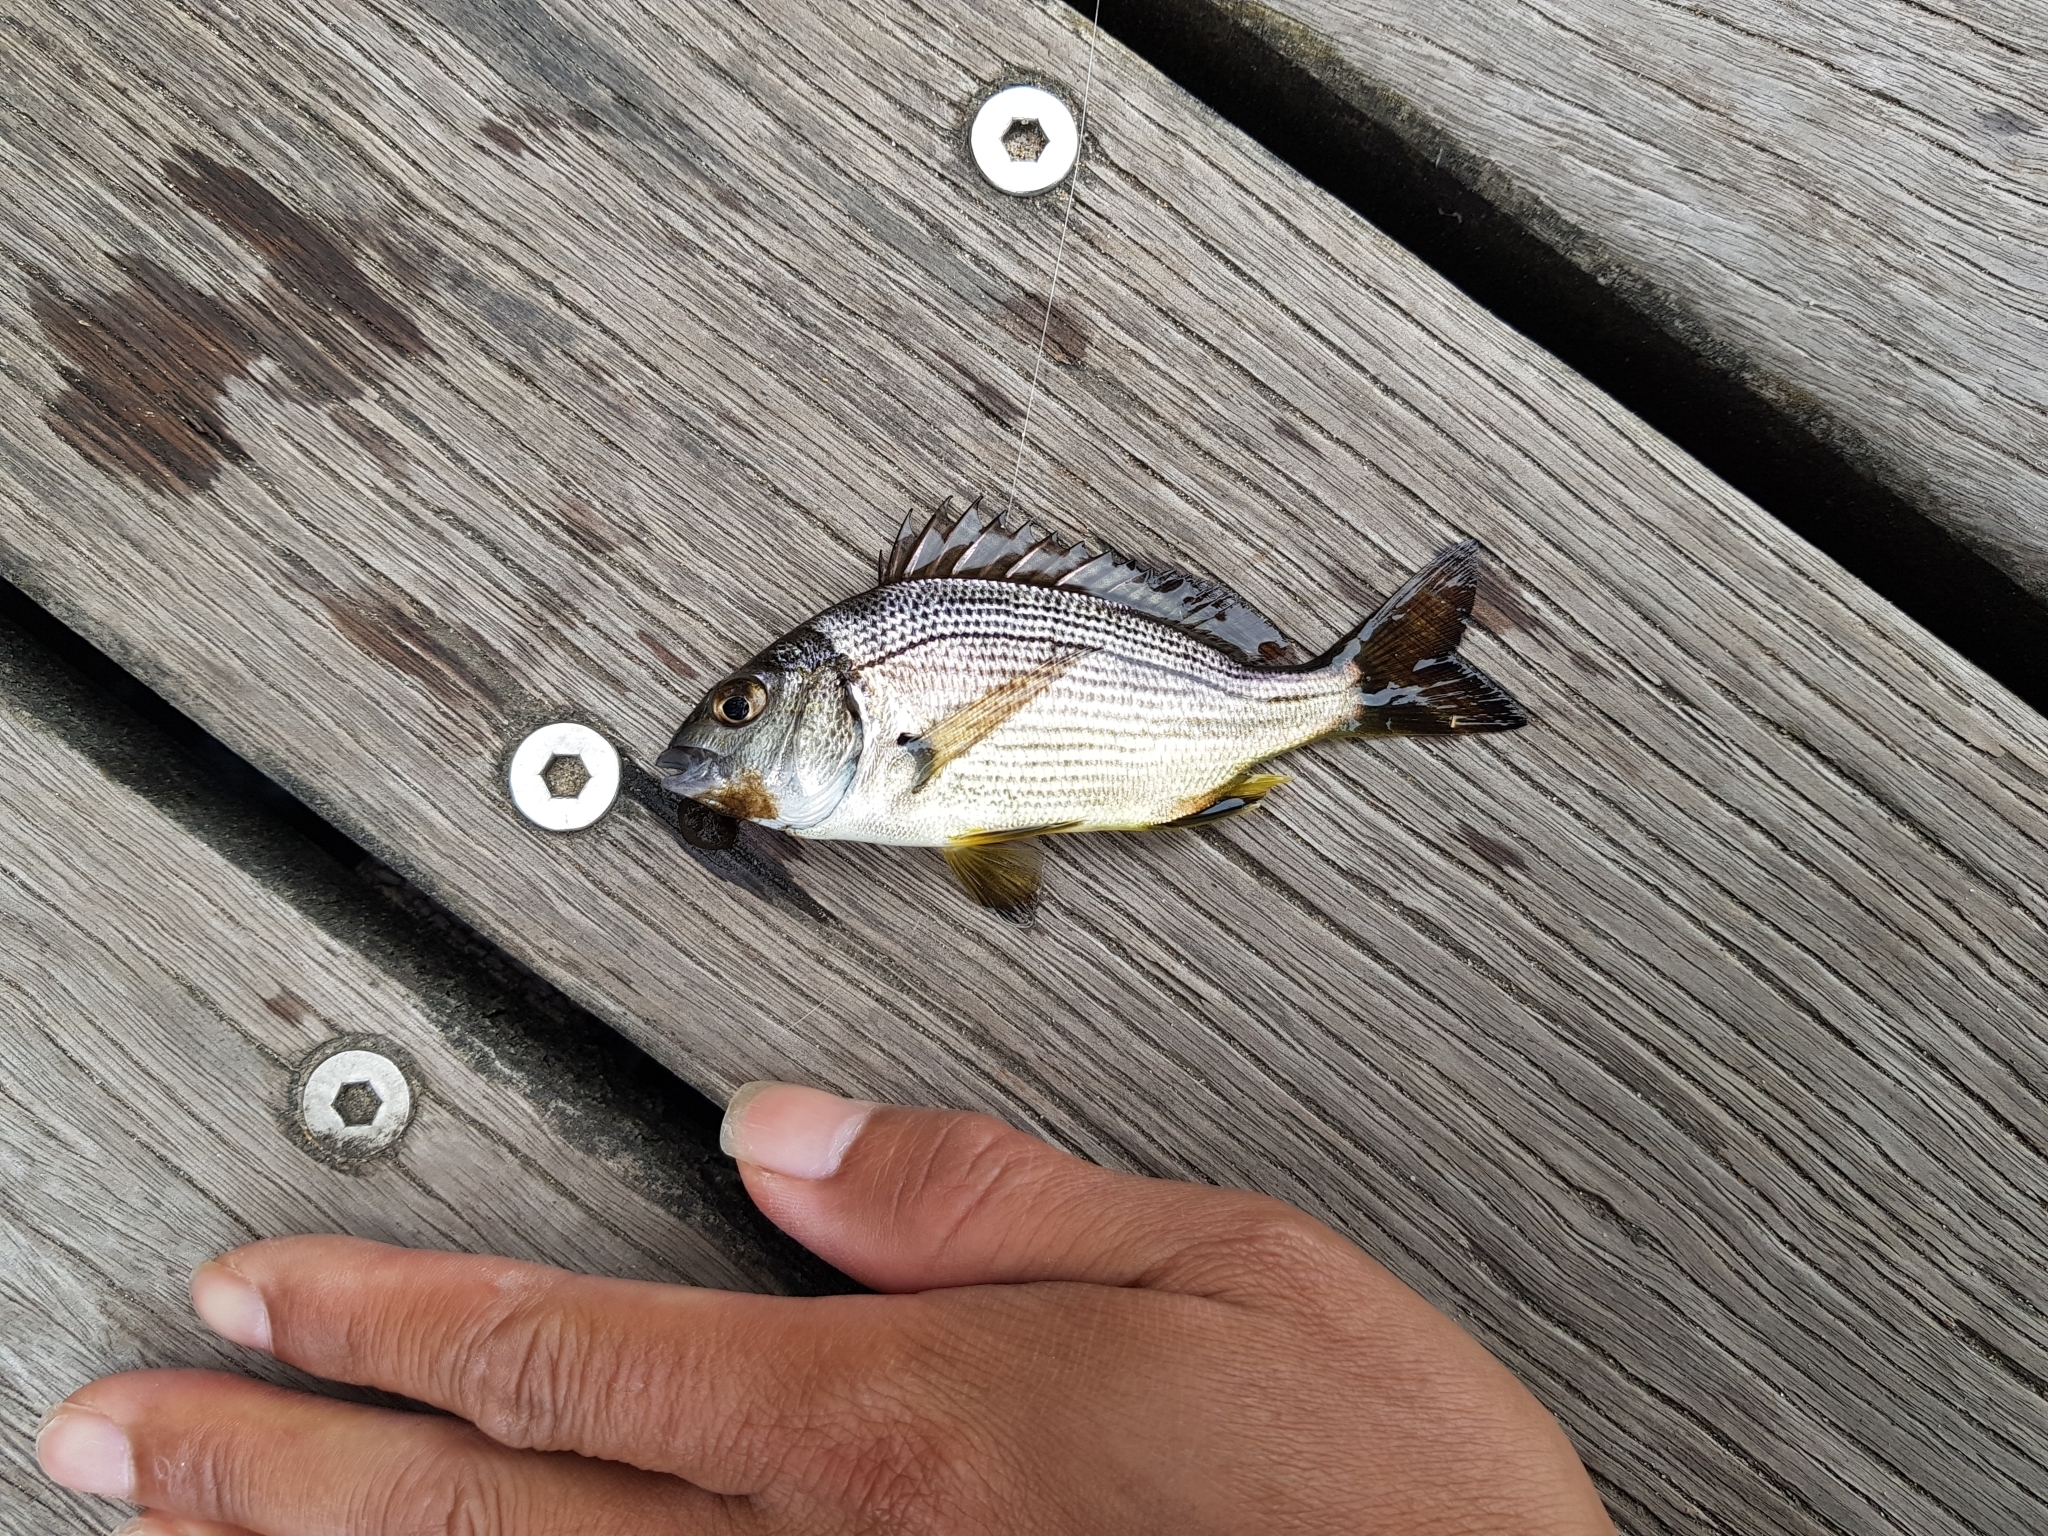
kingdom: Animalia
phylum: Chordata
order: Perciformes
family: Sparidae
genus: Acanthopagrus
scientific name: Acanthopagrus butcheri
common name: Black bream
